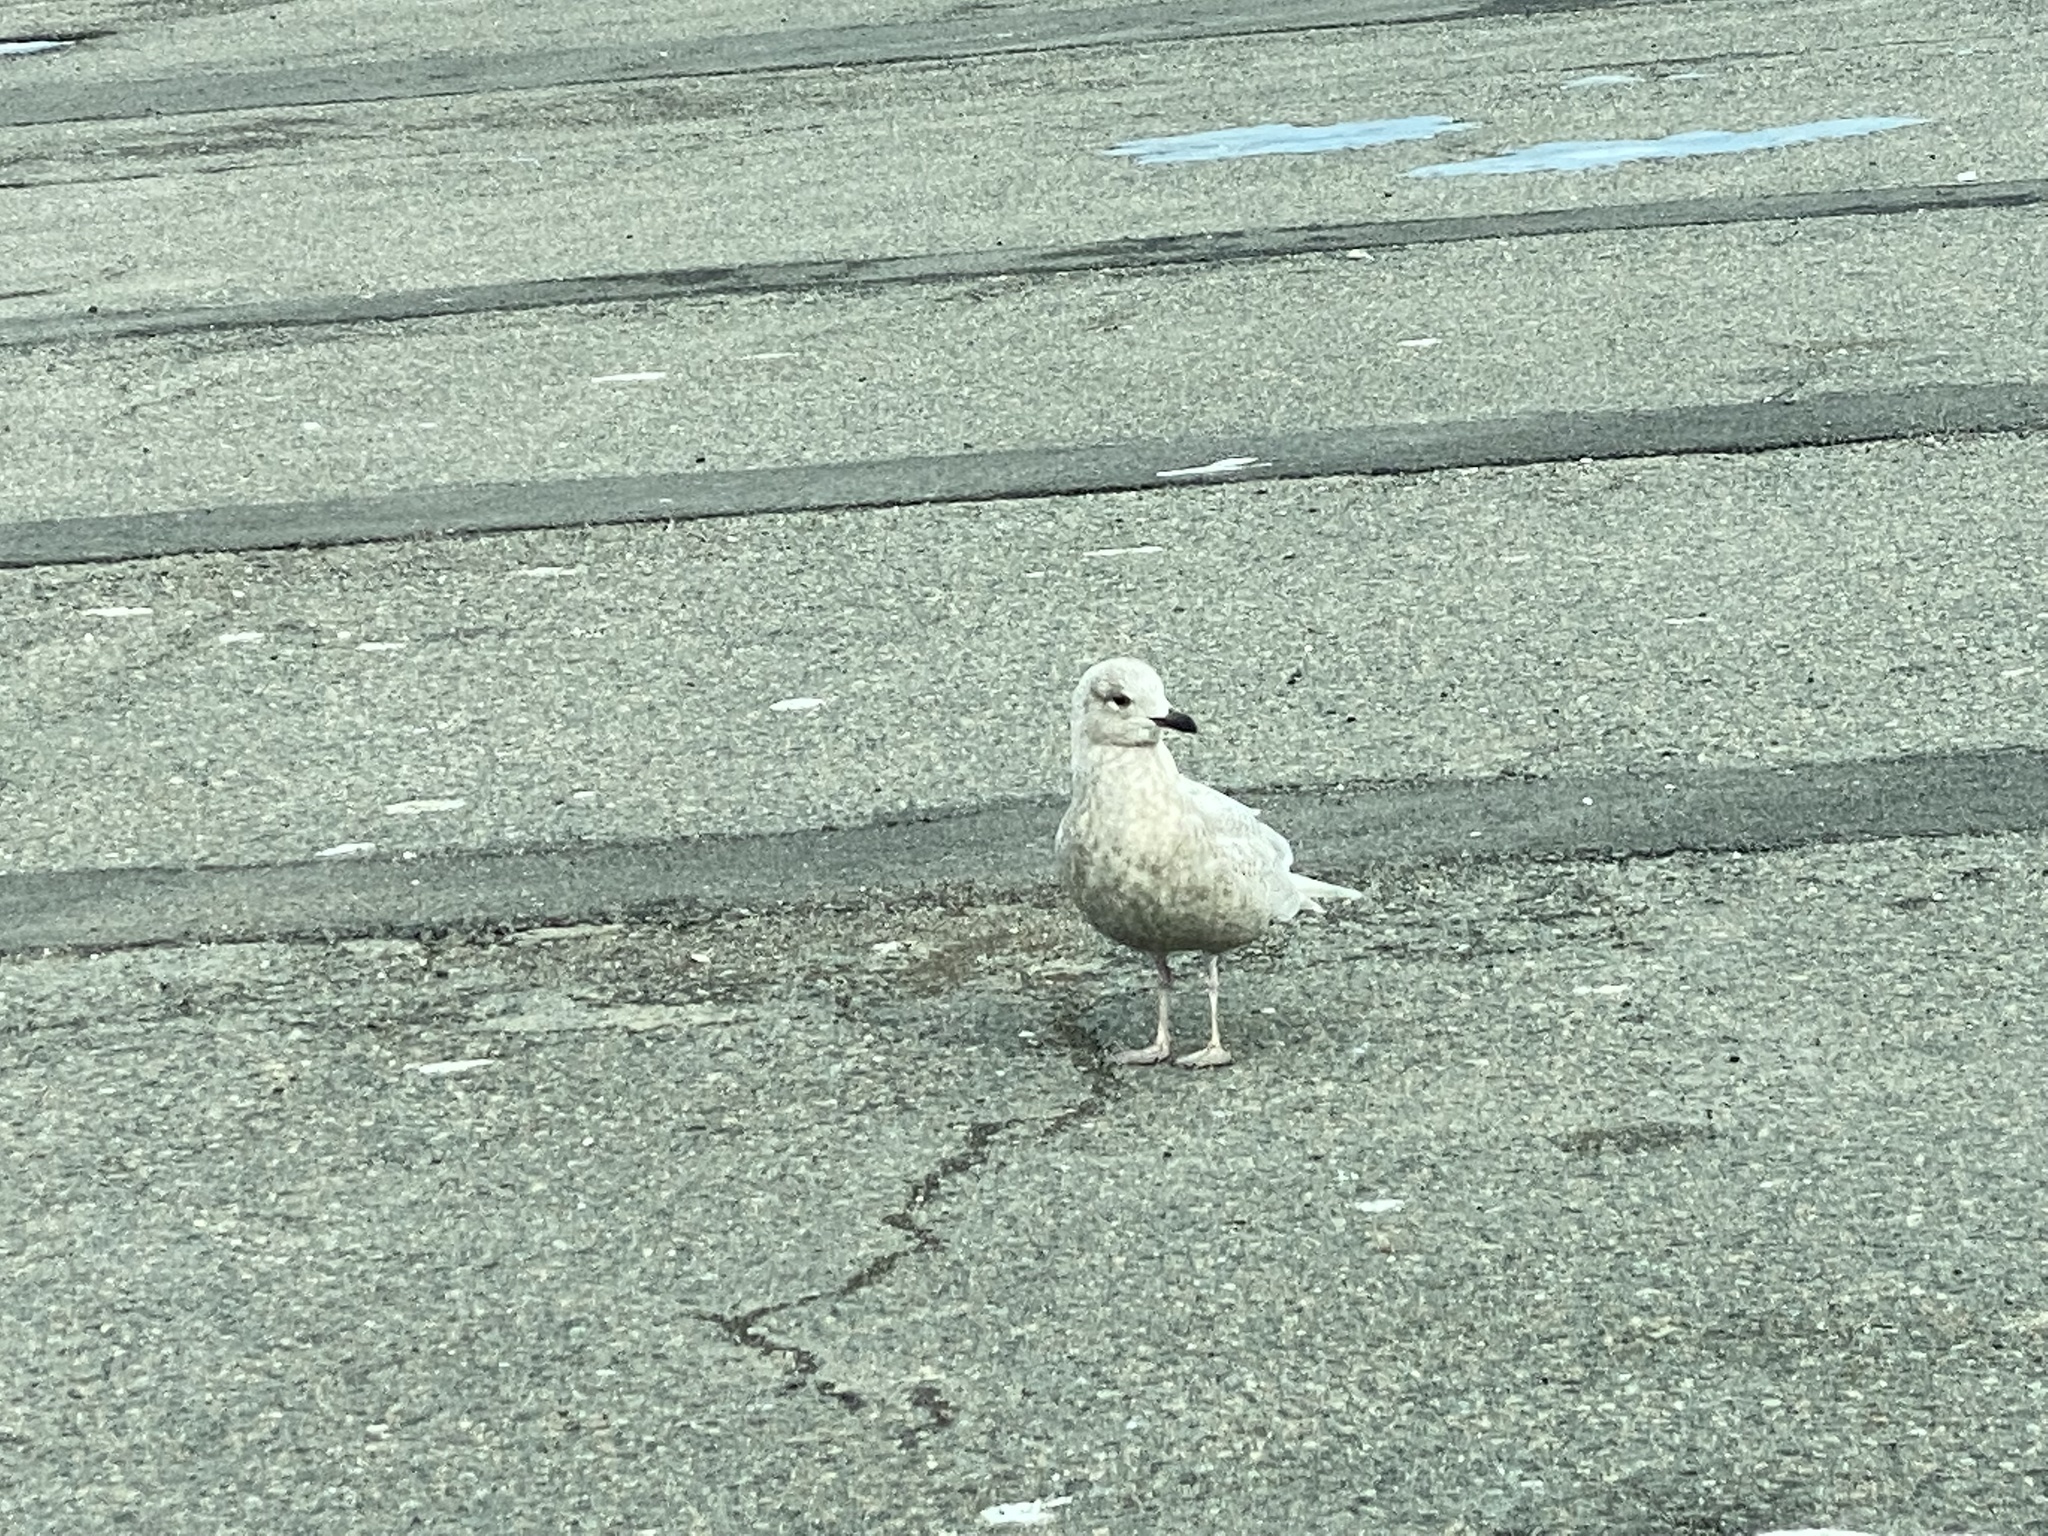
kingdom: Animalia
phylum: Chordata
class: Aves
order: Charadriiformes
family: Laridae
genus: Larus
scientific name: Larus glaucoides
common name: Iceland gull
